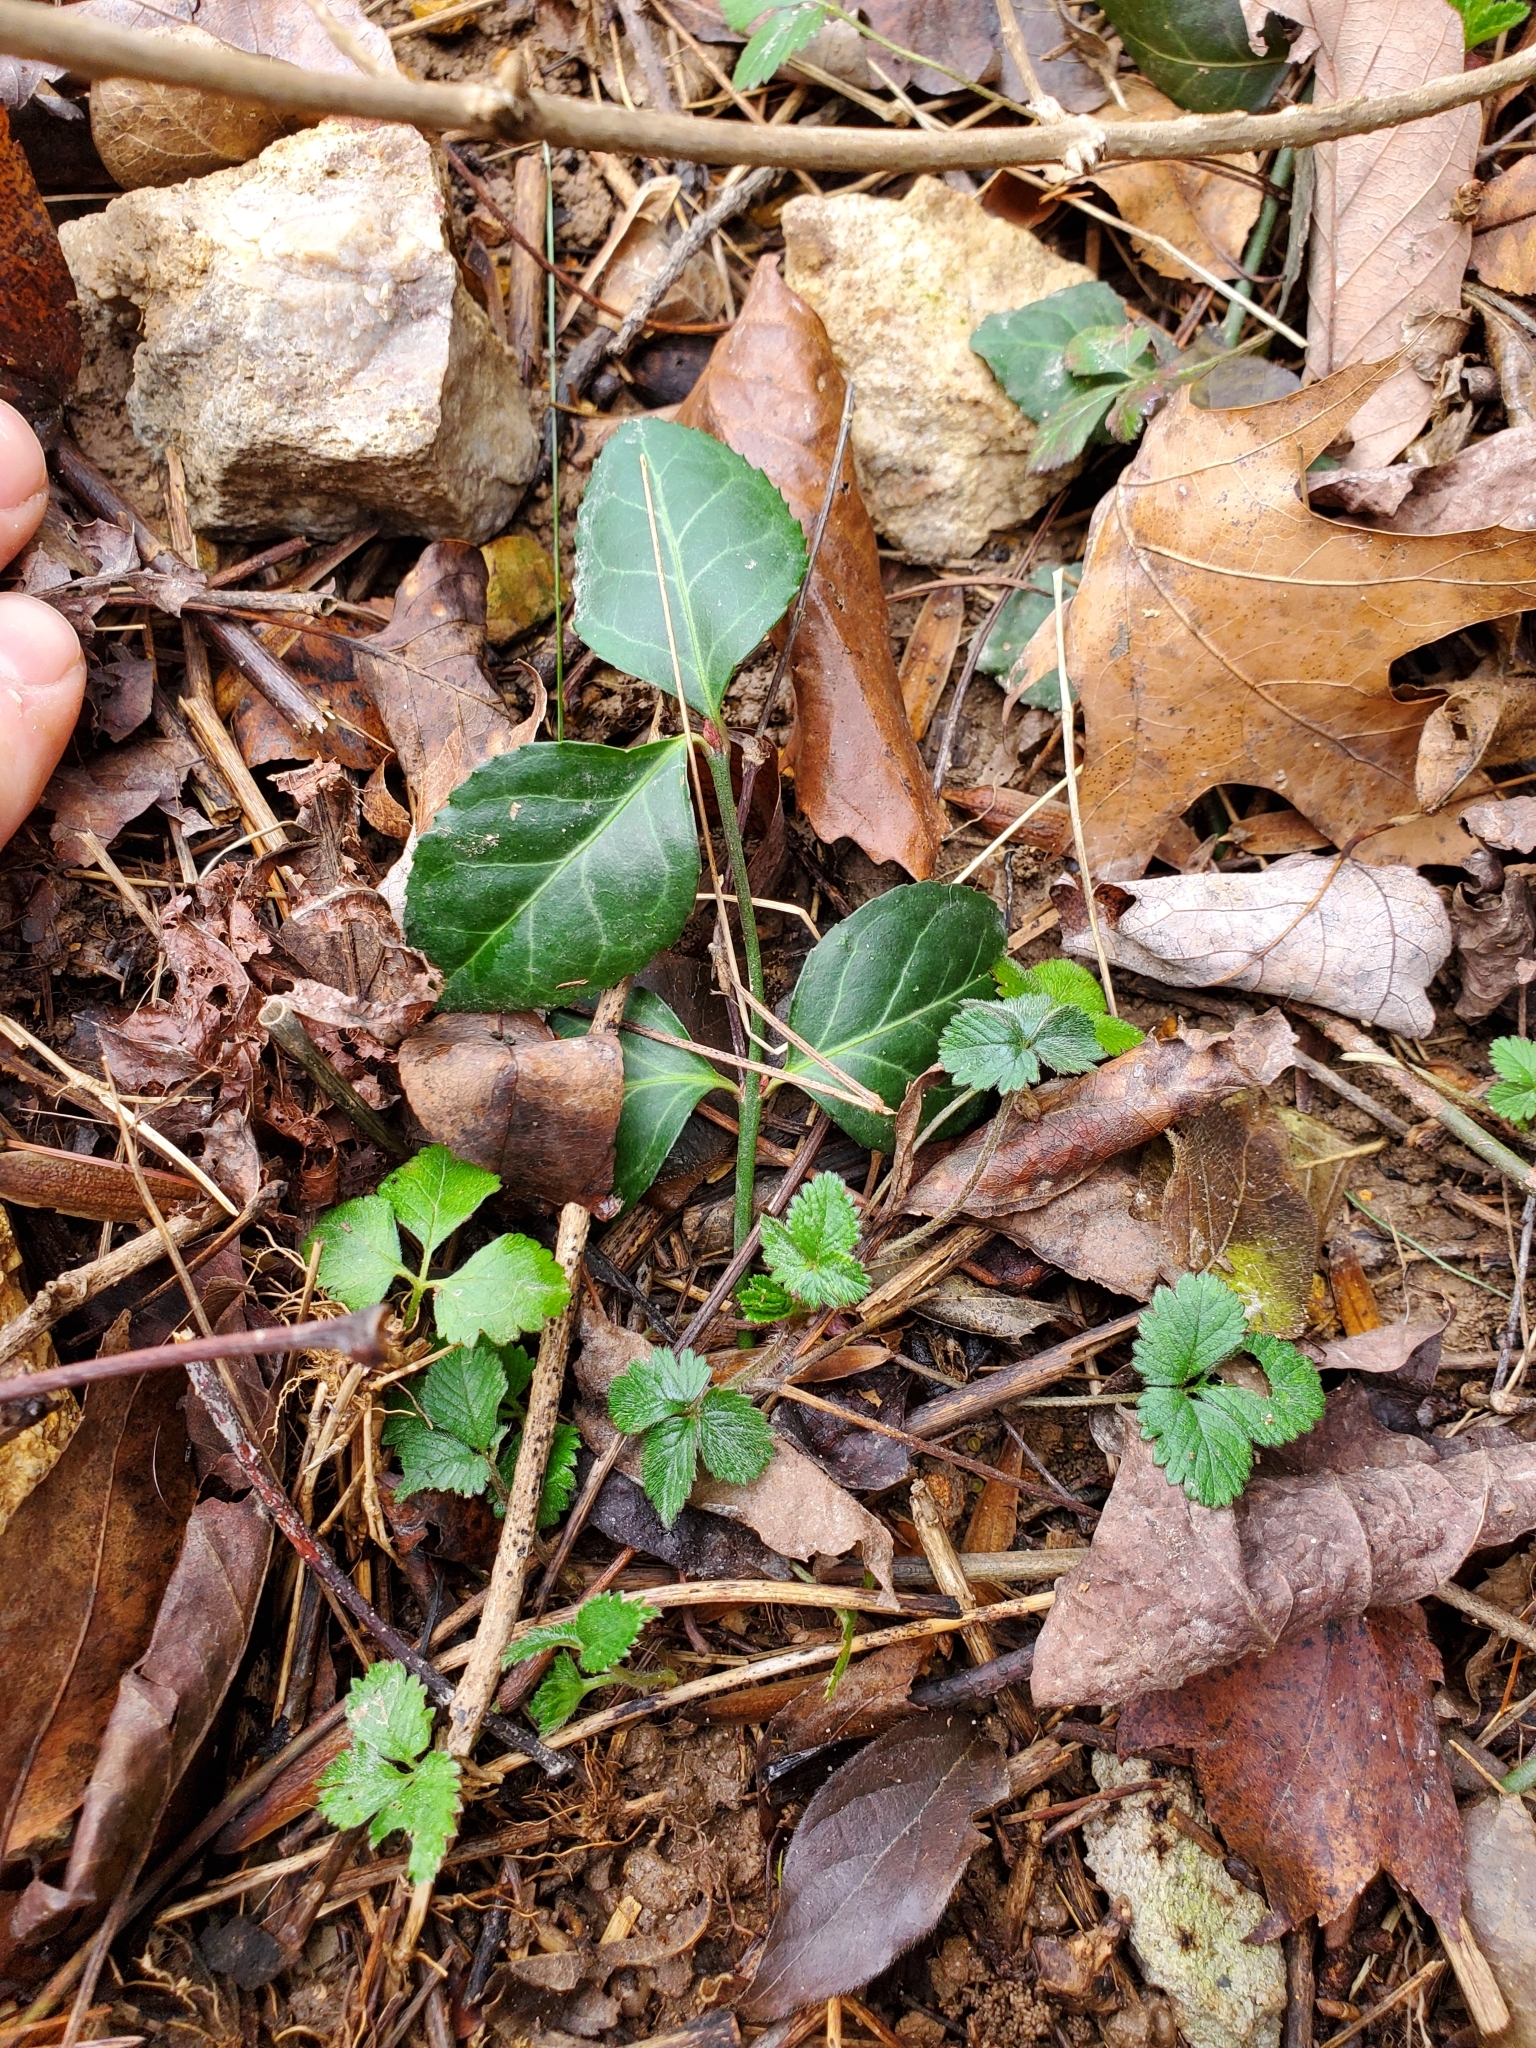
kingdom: Plantae
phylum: Tracheophyta
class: Magnoliopsida
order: Celastrales
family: Celastraceae
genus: Euonymus
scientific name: Euonymus fortunei
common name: Climbing euonymus
